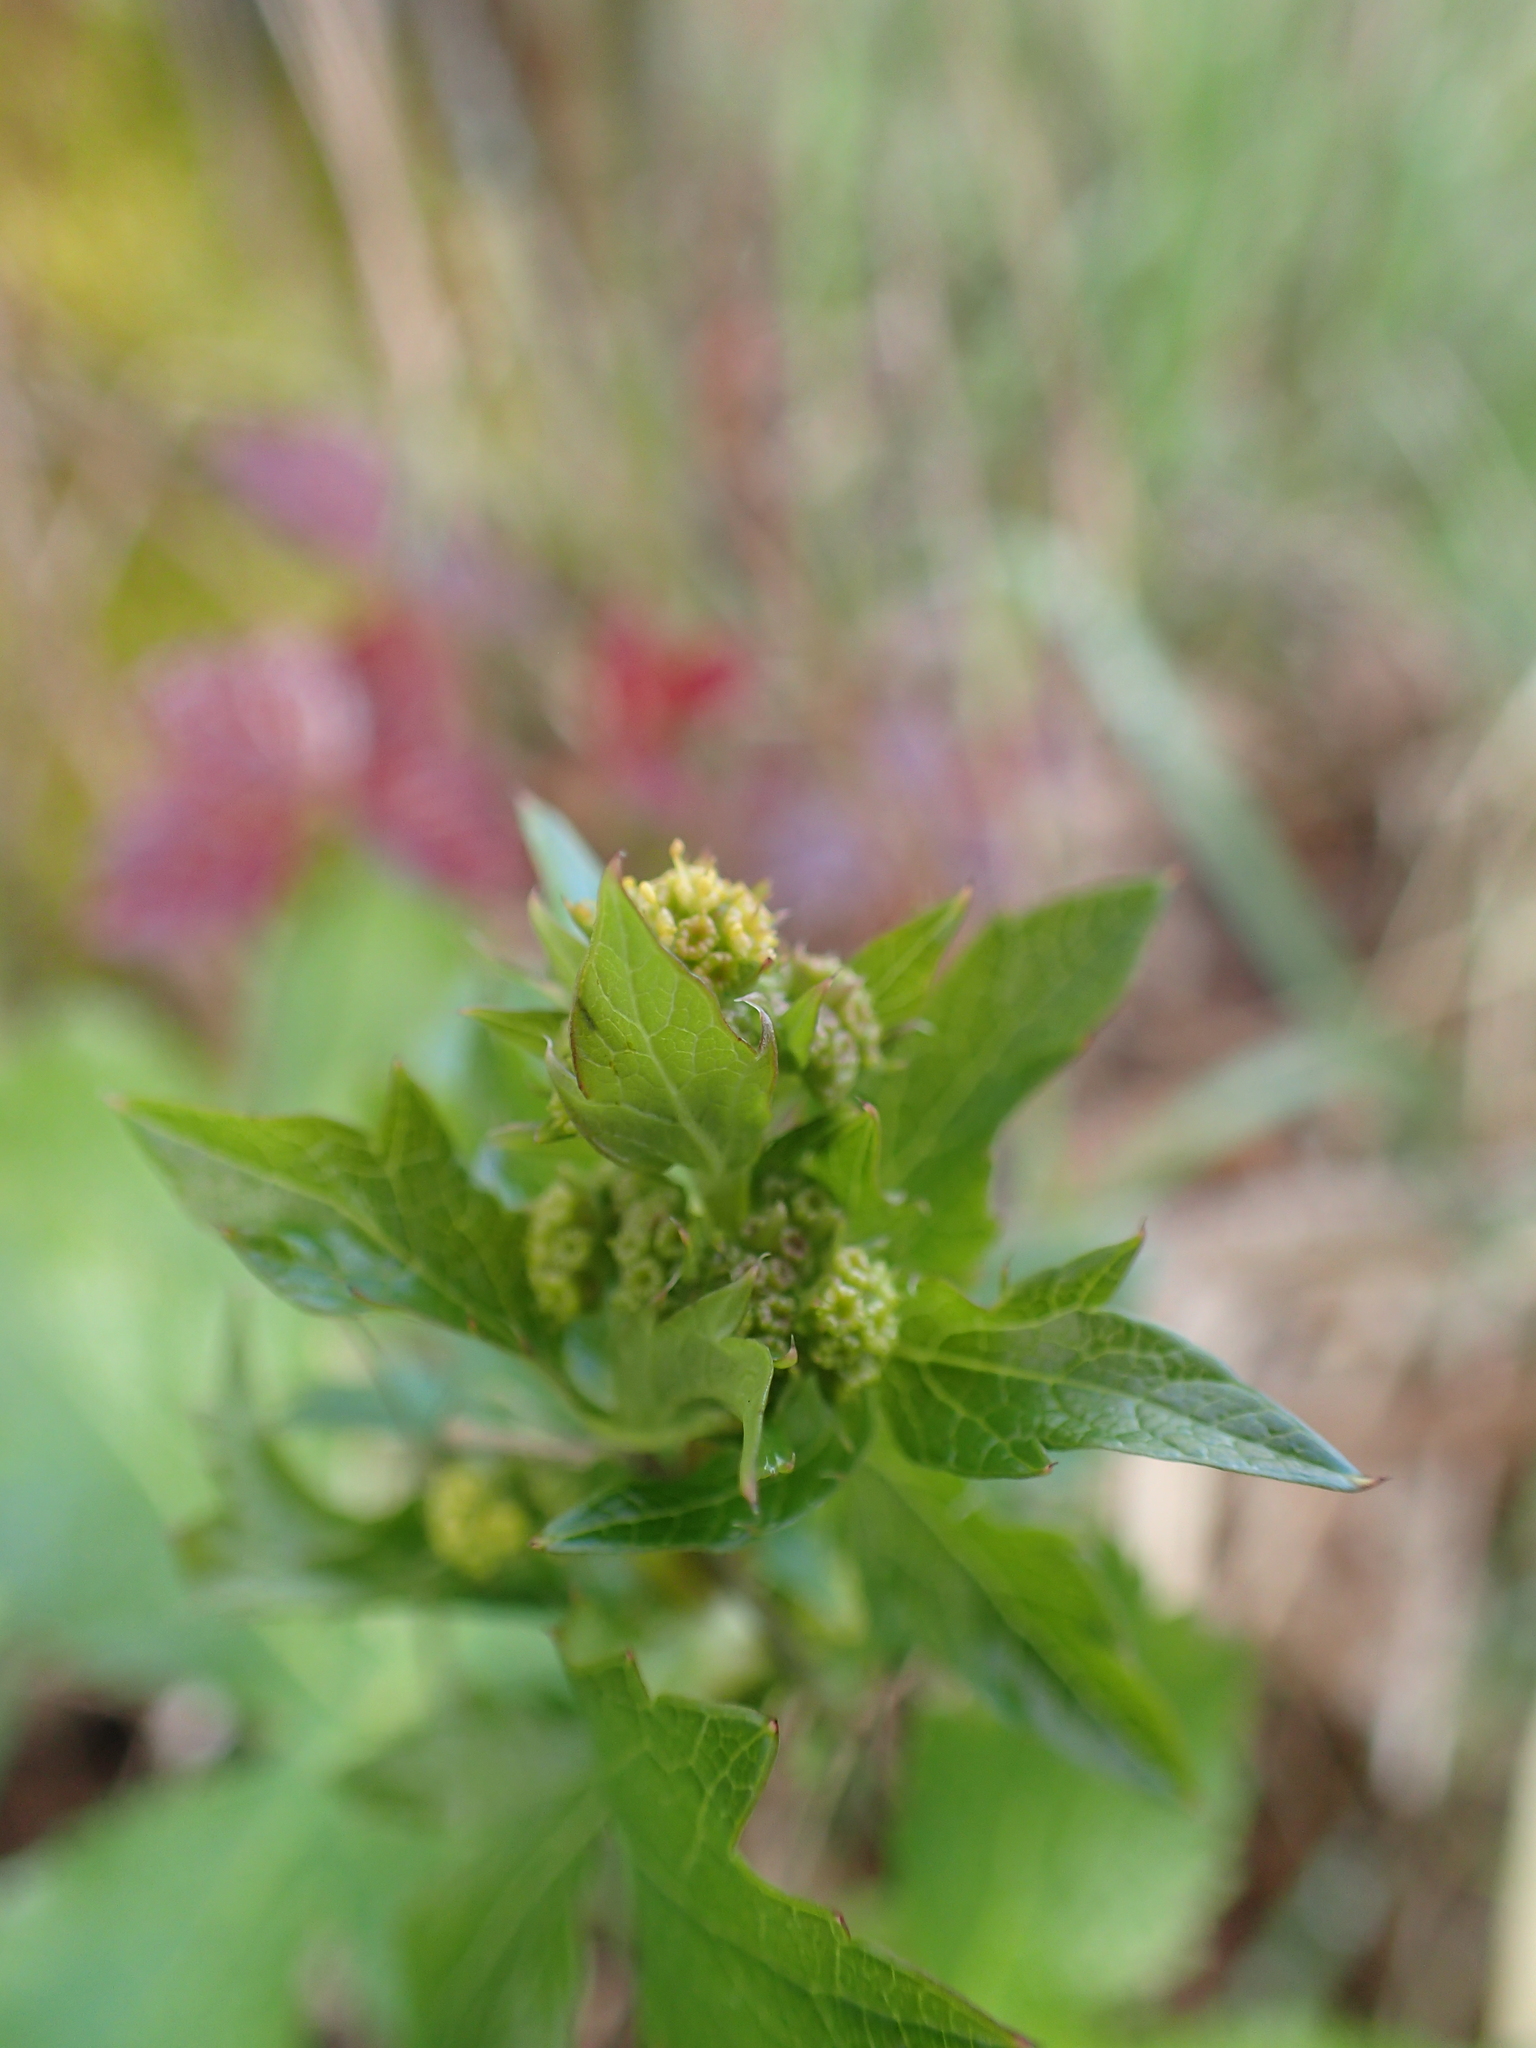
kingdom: Plantae
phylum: Tracheophyta
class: Magnoliopsida
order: Apiales
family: Apiaceae
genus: Sanicula
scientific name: Sanicula crassicaulis
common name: Western snakeroot
